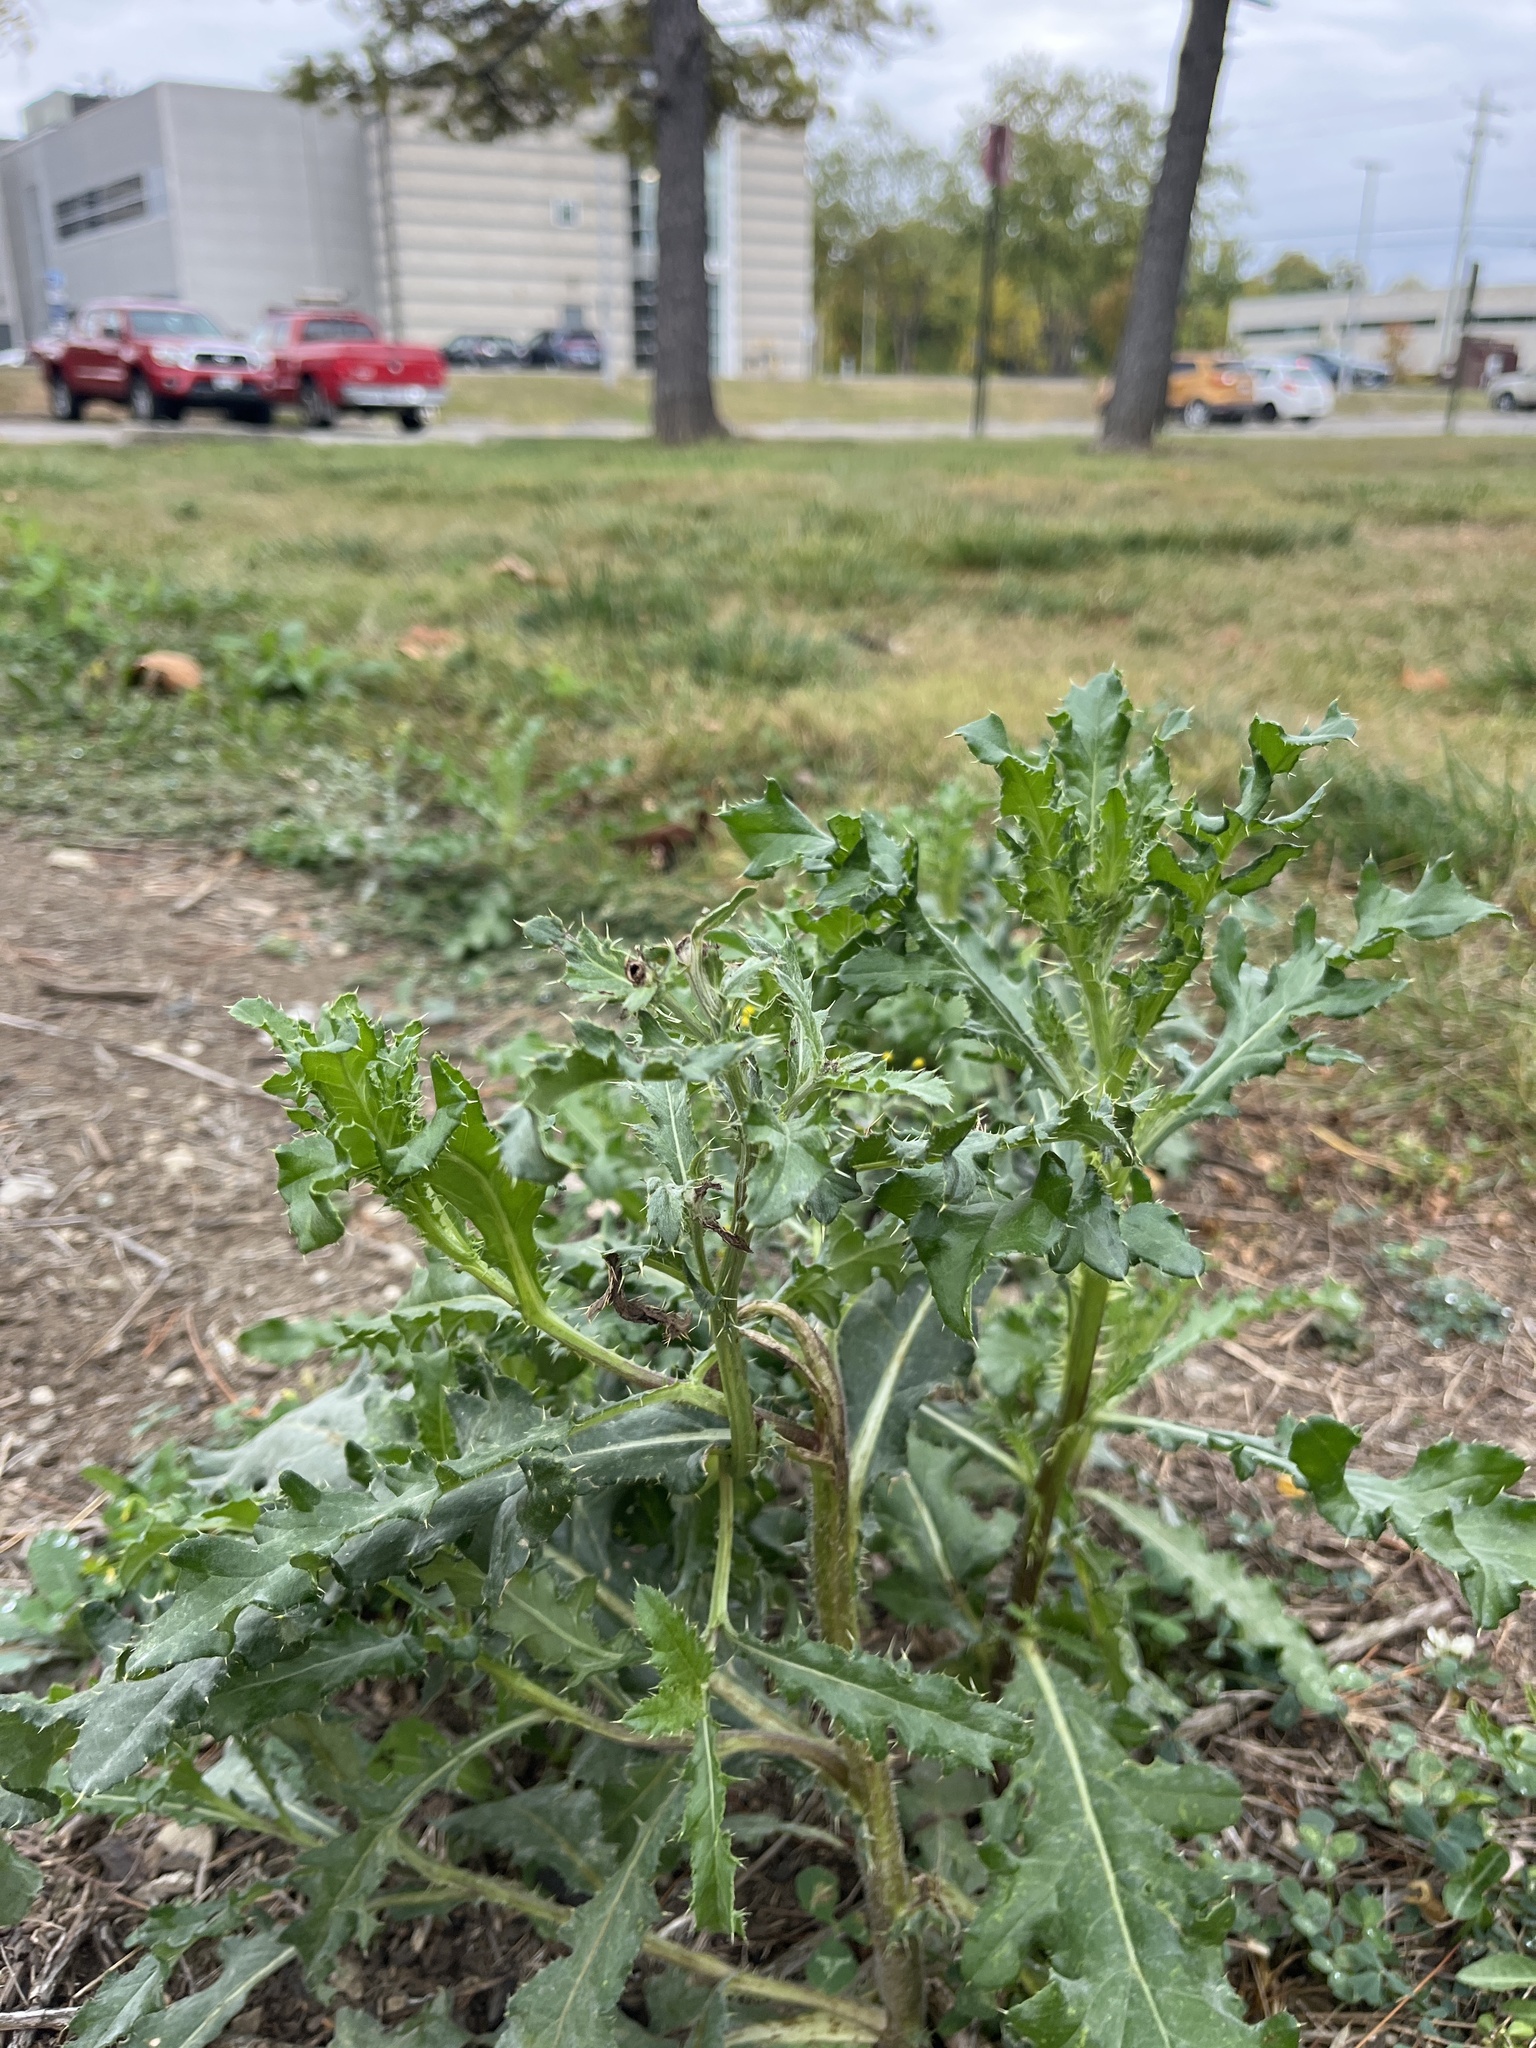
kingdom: Plantae
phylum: Tracheophyta
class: Magnoliopsida
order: Asterales
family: Asteraceae
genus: Cirsium
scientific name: Cirsium arvense
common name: Creeping thistle
